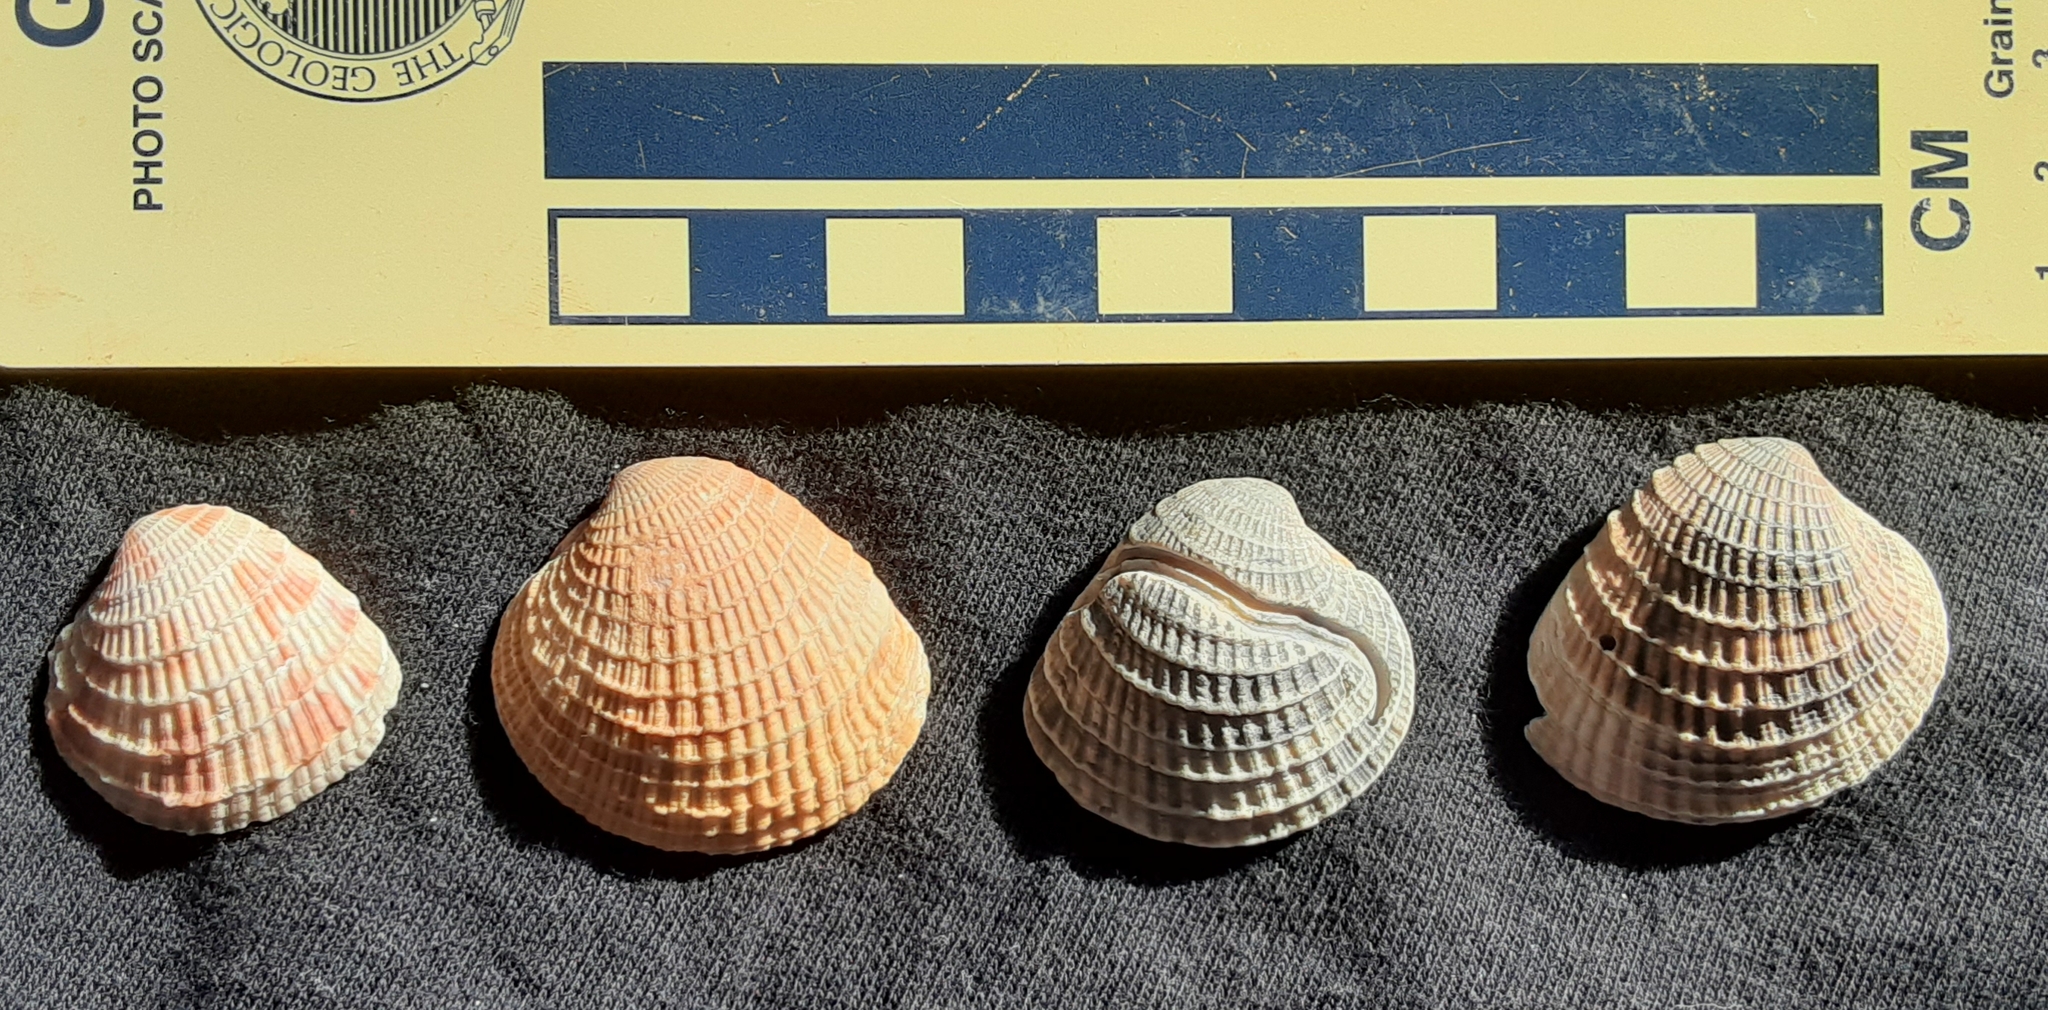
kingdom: Animalia
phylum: Mollusca
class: Bivalvia
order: Venerida
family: Veneridae
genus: Chione
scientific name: Chione elevata
